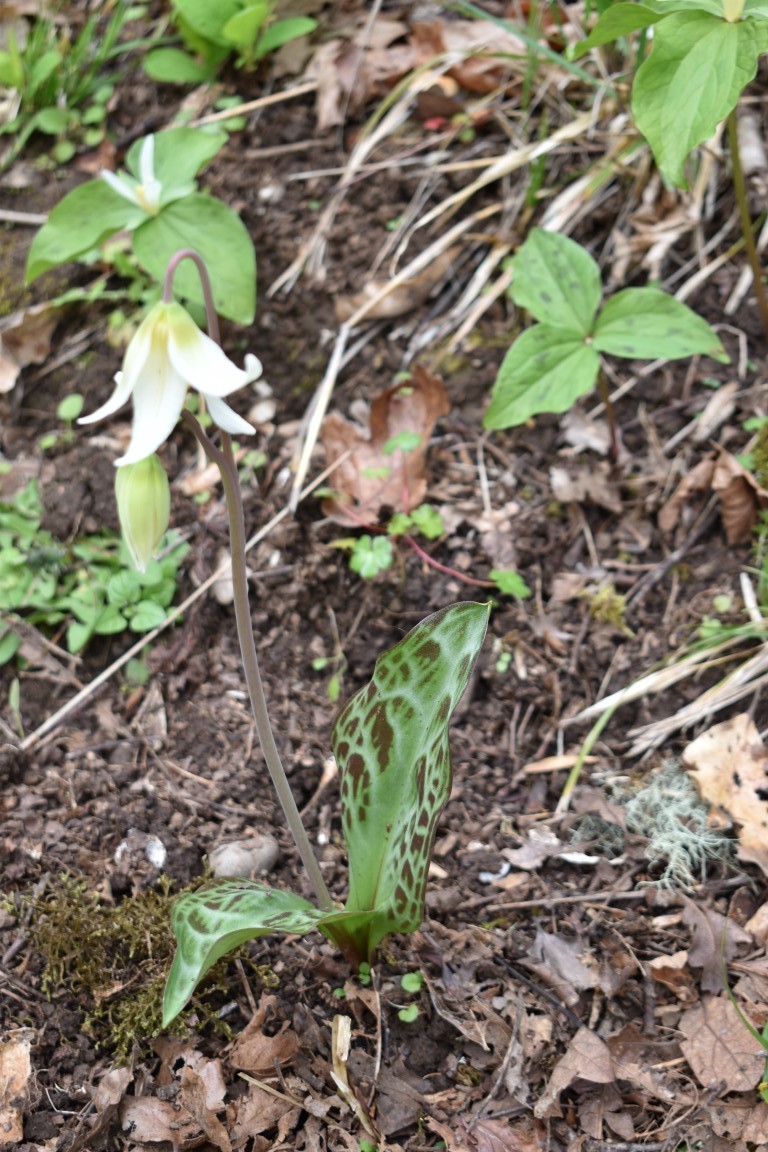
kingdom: Plantae
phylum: Tracheophyta
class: Liliopsida
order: Liliales
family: Liliaceae
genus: Erythronium
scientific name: Erythronium oregonum
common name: Giant adder's-tongue
